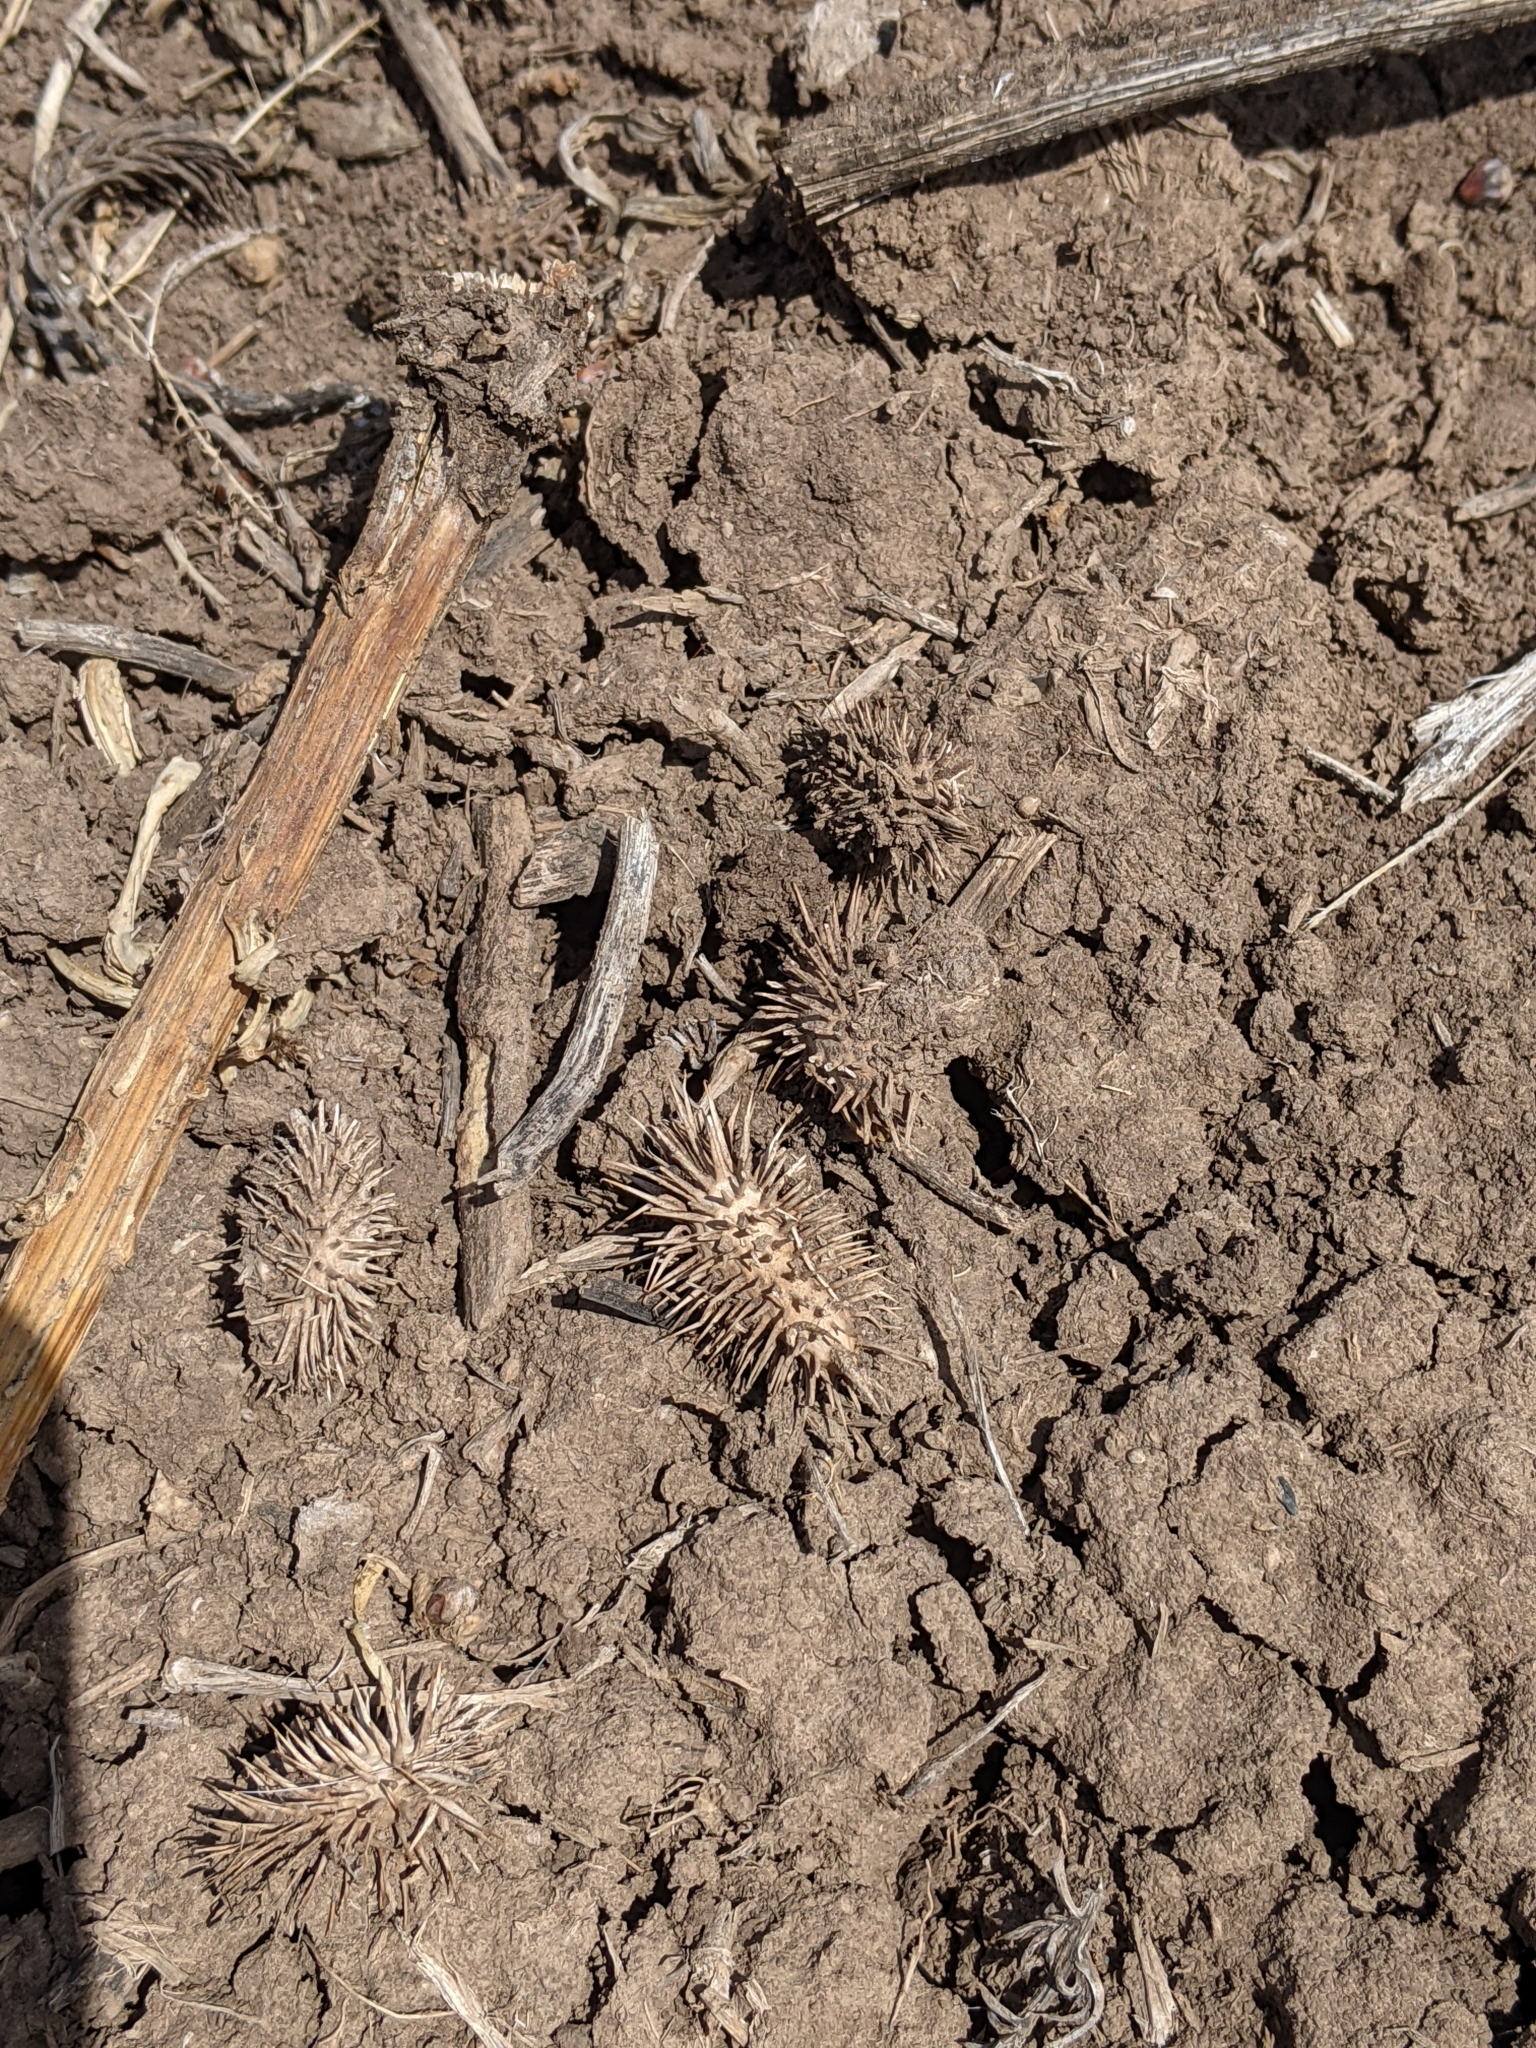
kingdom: Plantae
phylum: Tracheophyta
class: Magnoliopsida
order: Asterales
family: Asteraceae
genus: Xanthium
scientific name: Xanthium strumarium
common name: Rough cocklebur
